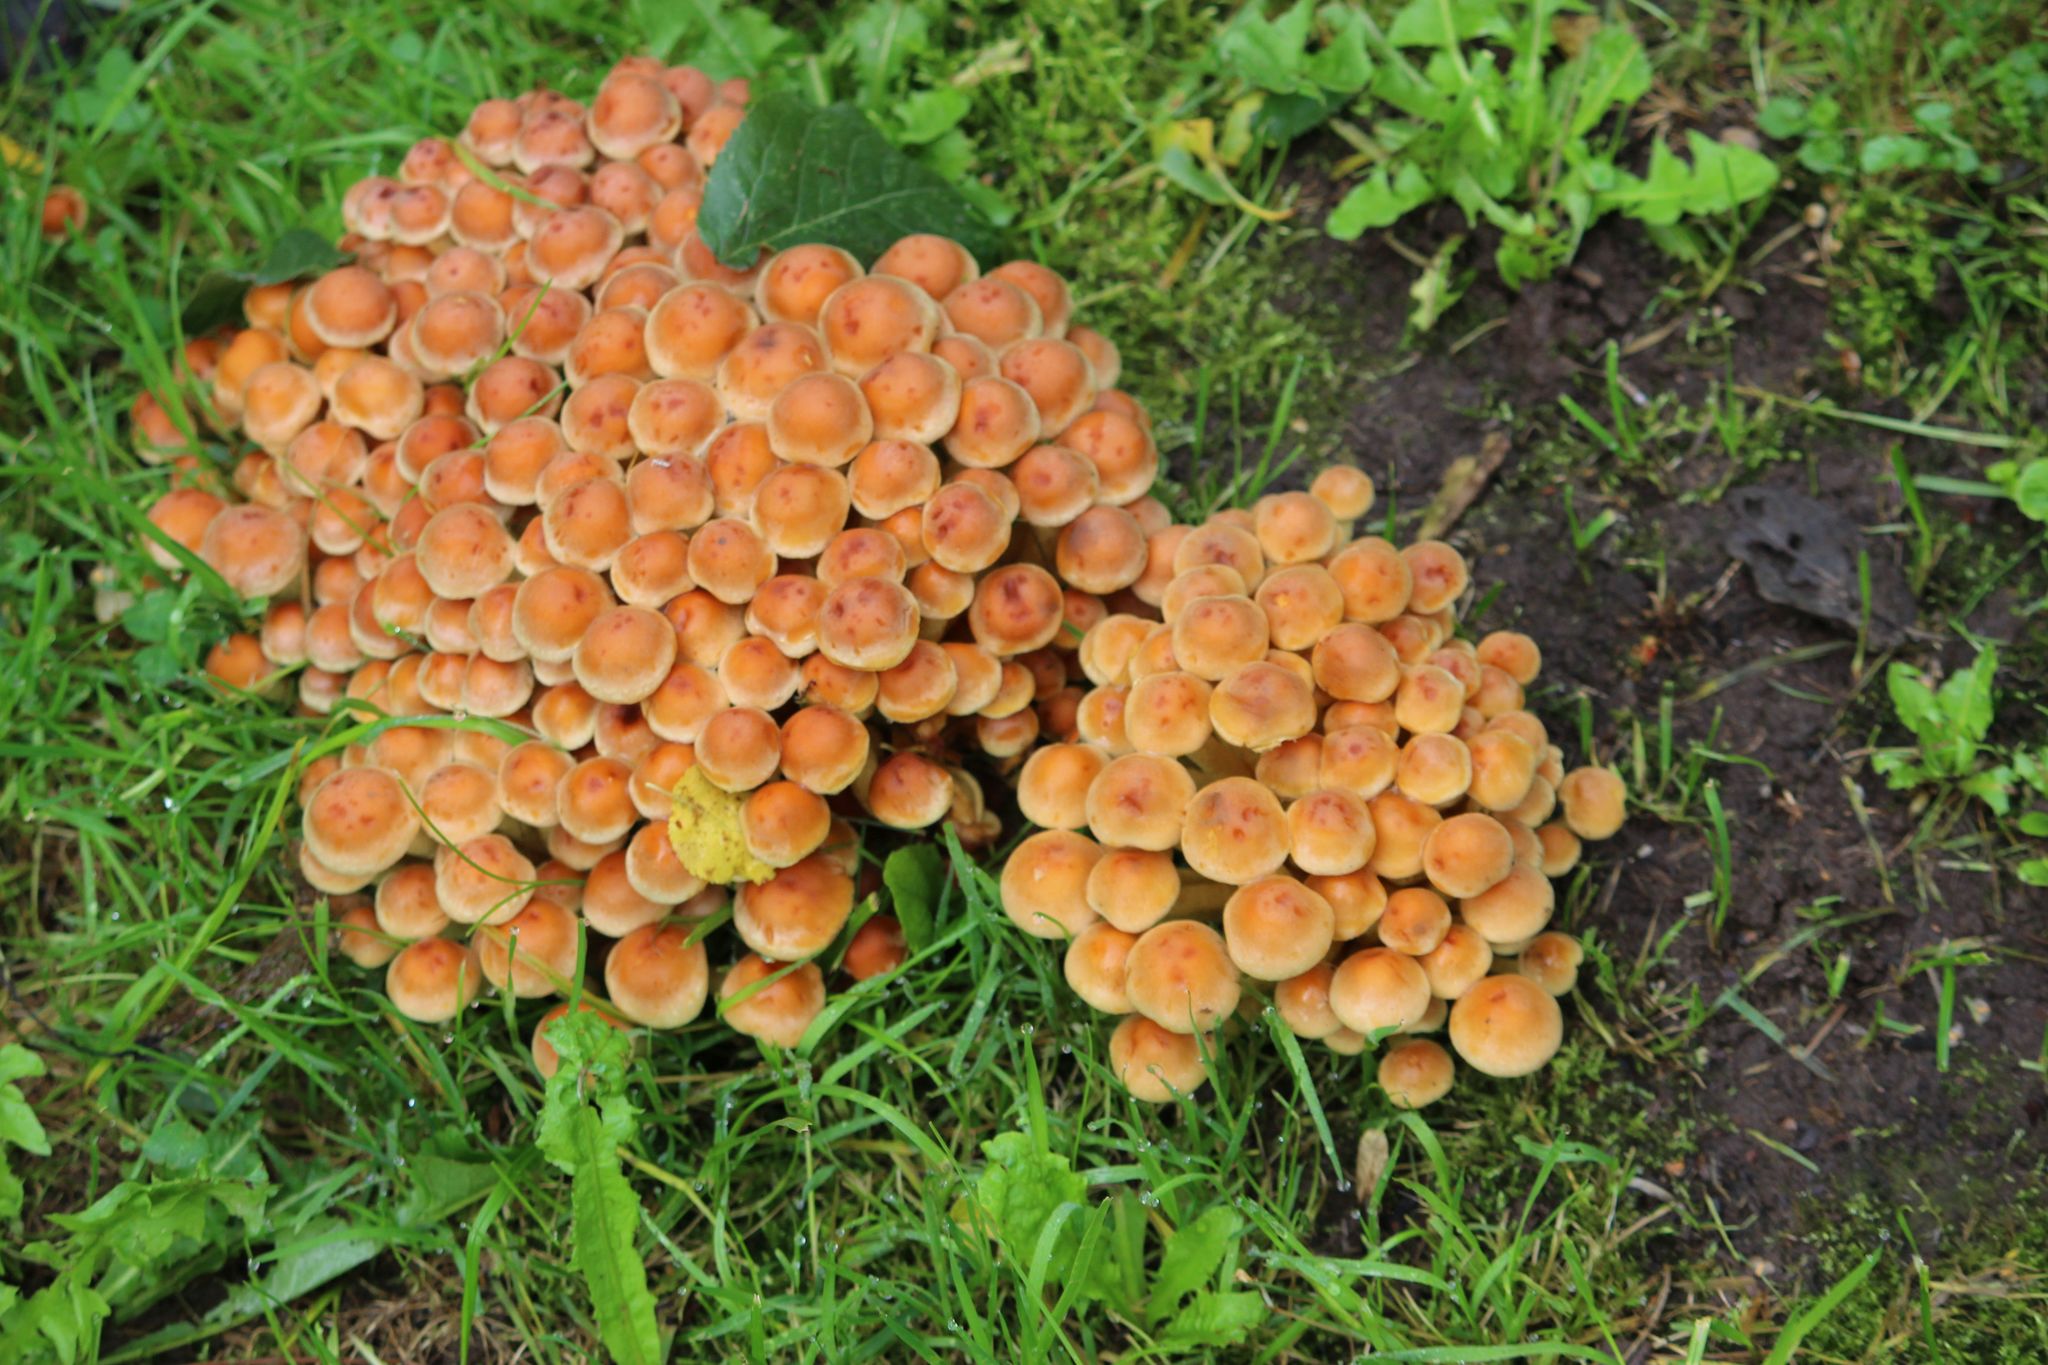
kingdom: Fungi
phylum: Basidiomycota
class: Agaricomycetes
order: Agaricales
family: Strophariaceae
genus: Hypholoma
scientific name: Hypholoma fasciculare
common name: Sulphur tuft
